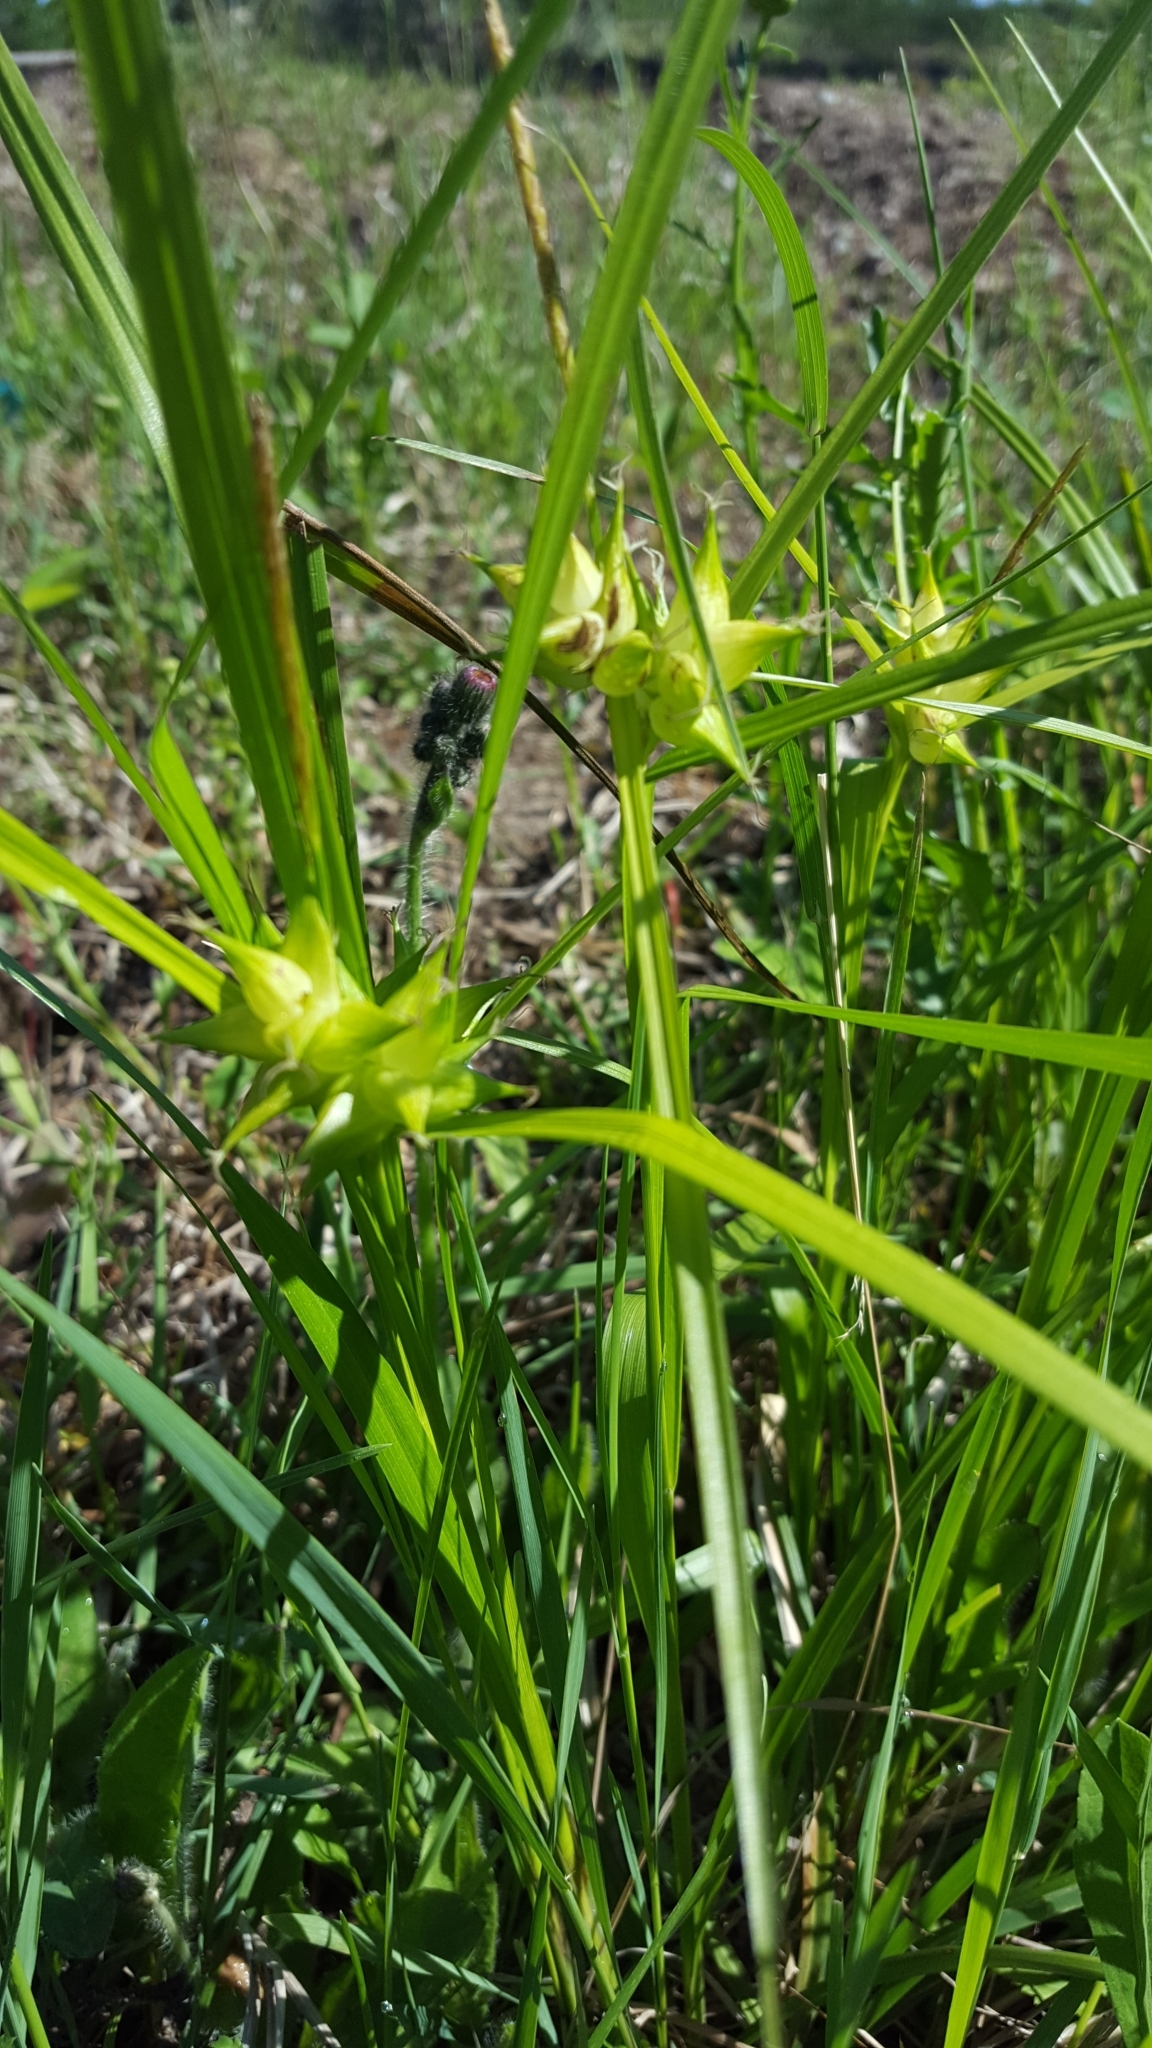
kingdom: Plantae
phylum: Tracheophyta
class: Liliopsida
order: Poales
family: Cyperaceae
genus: Carex
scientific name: Carex intumescens
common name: Greater bladder sedge
